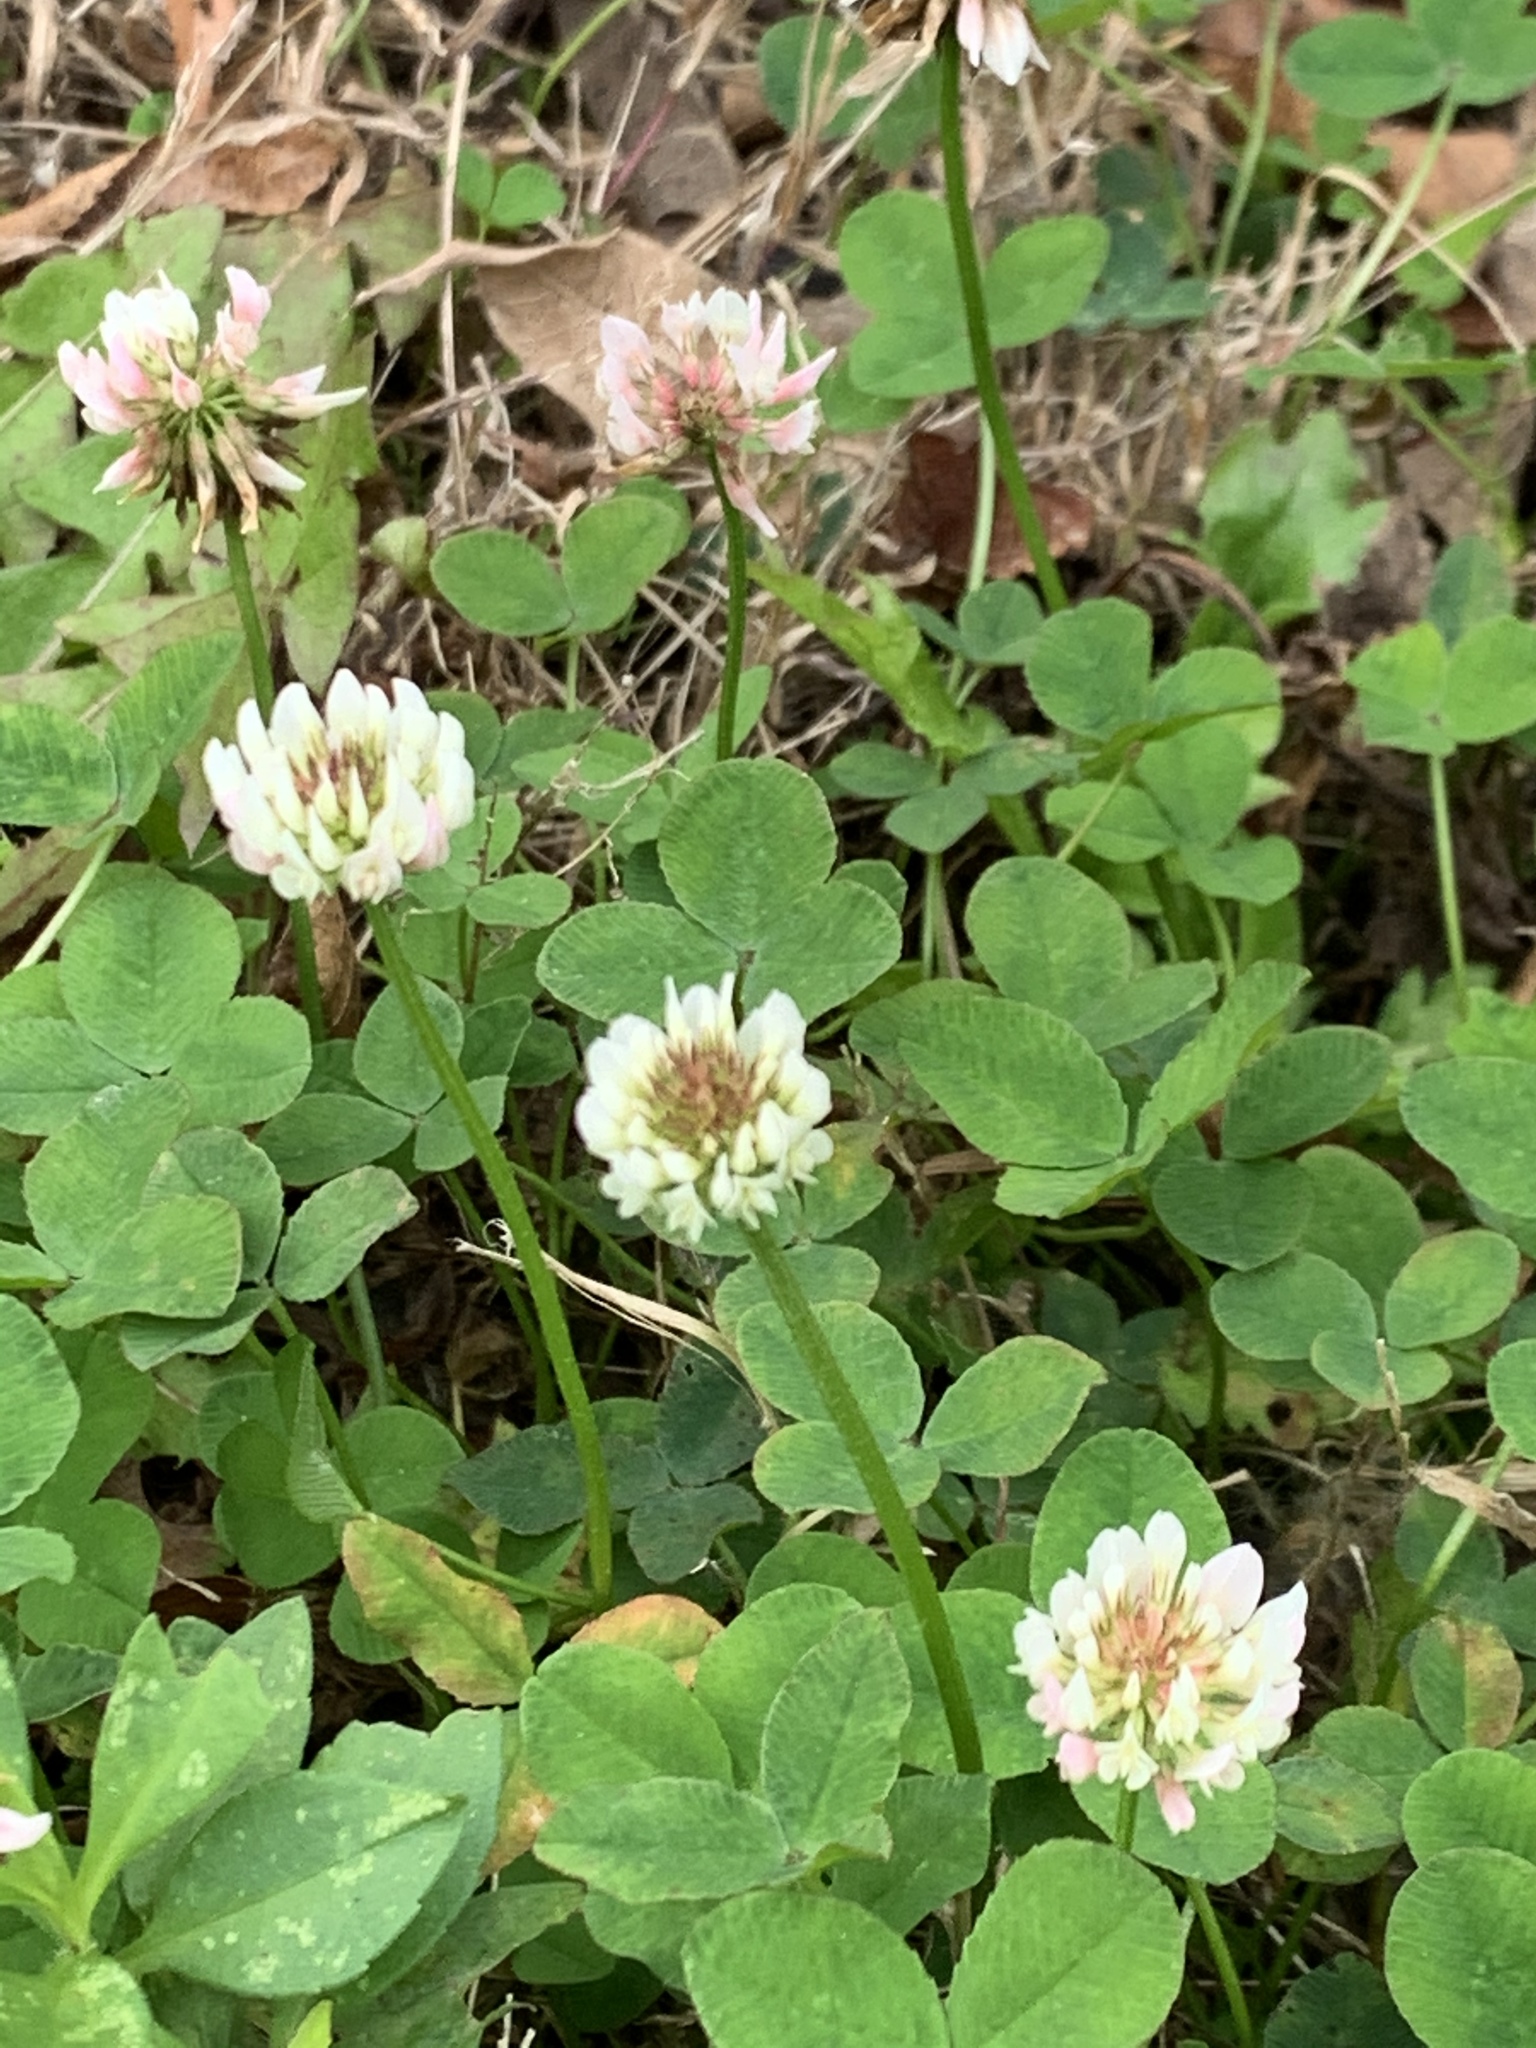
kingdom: Plantae
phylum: Tracheophyta
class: Magnoliopsida
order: Fabales
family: Fabaceae
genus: Trifolium
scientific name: Trifolium repens
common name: White clover
